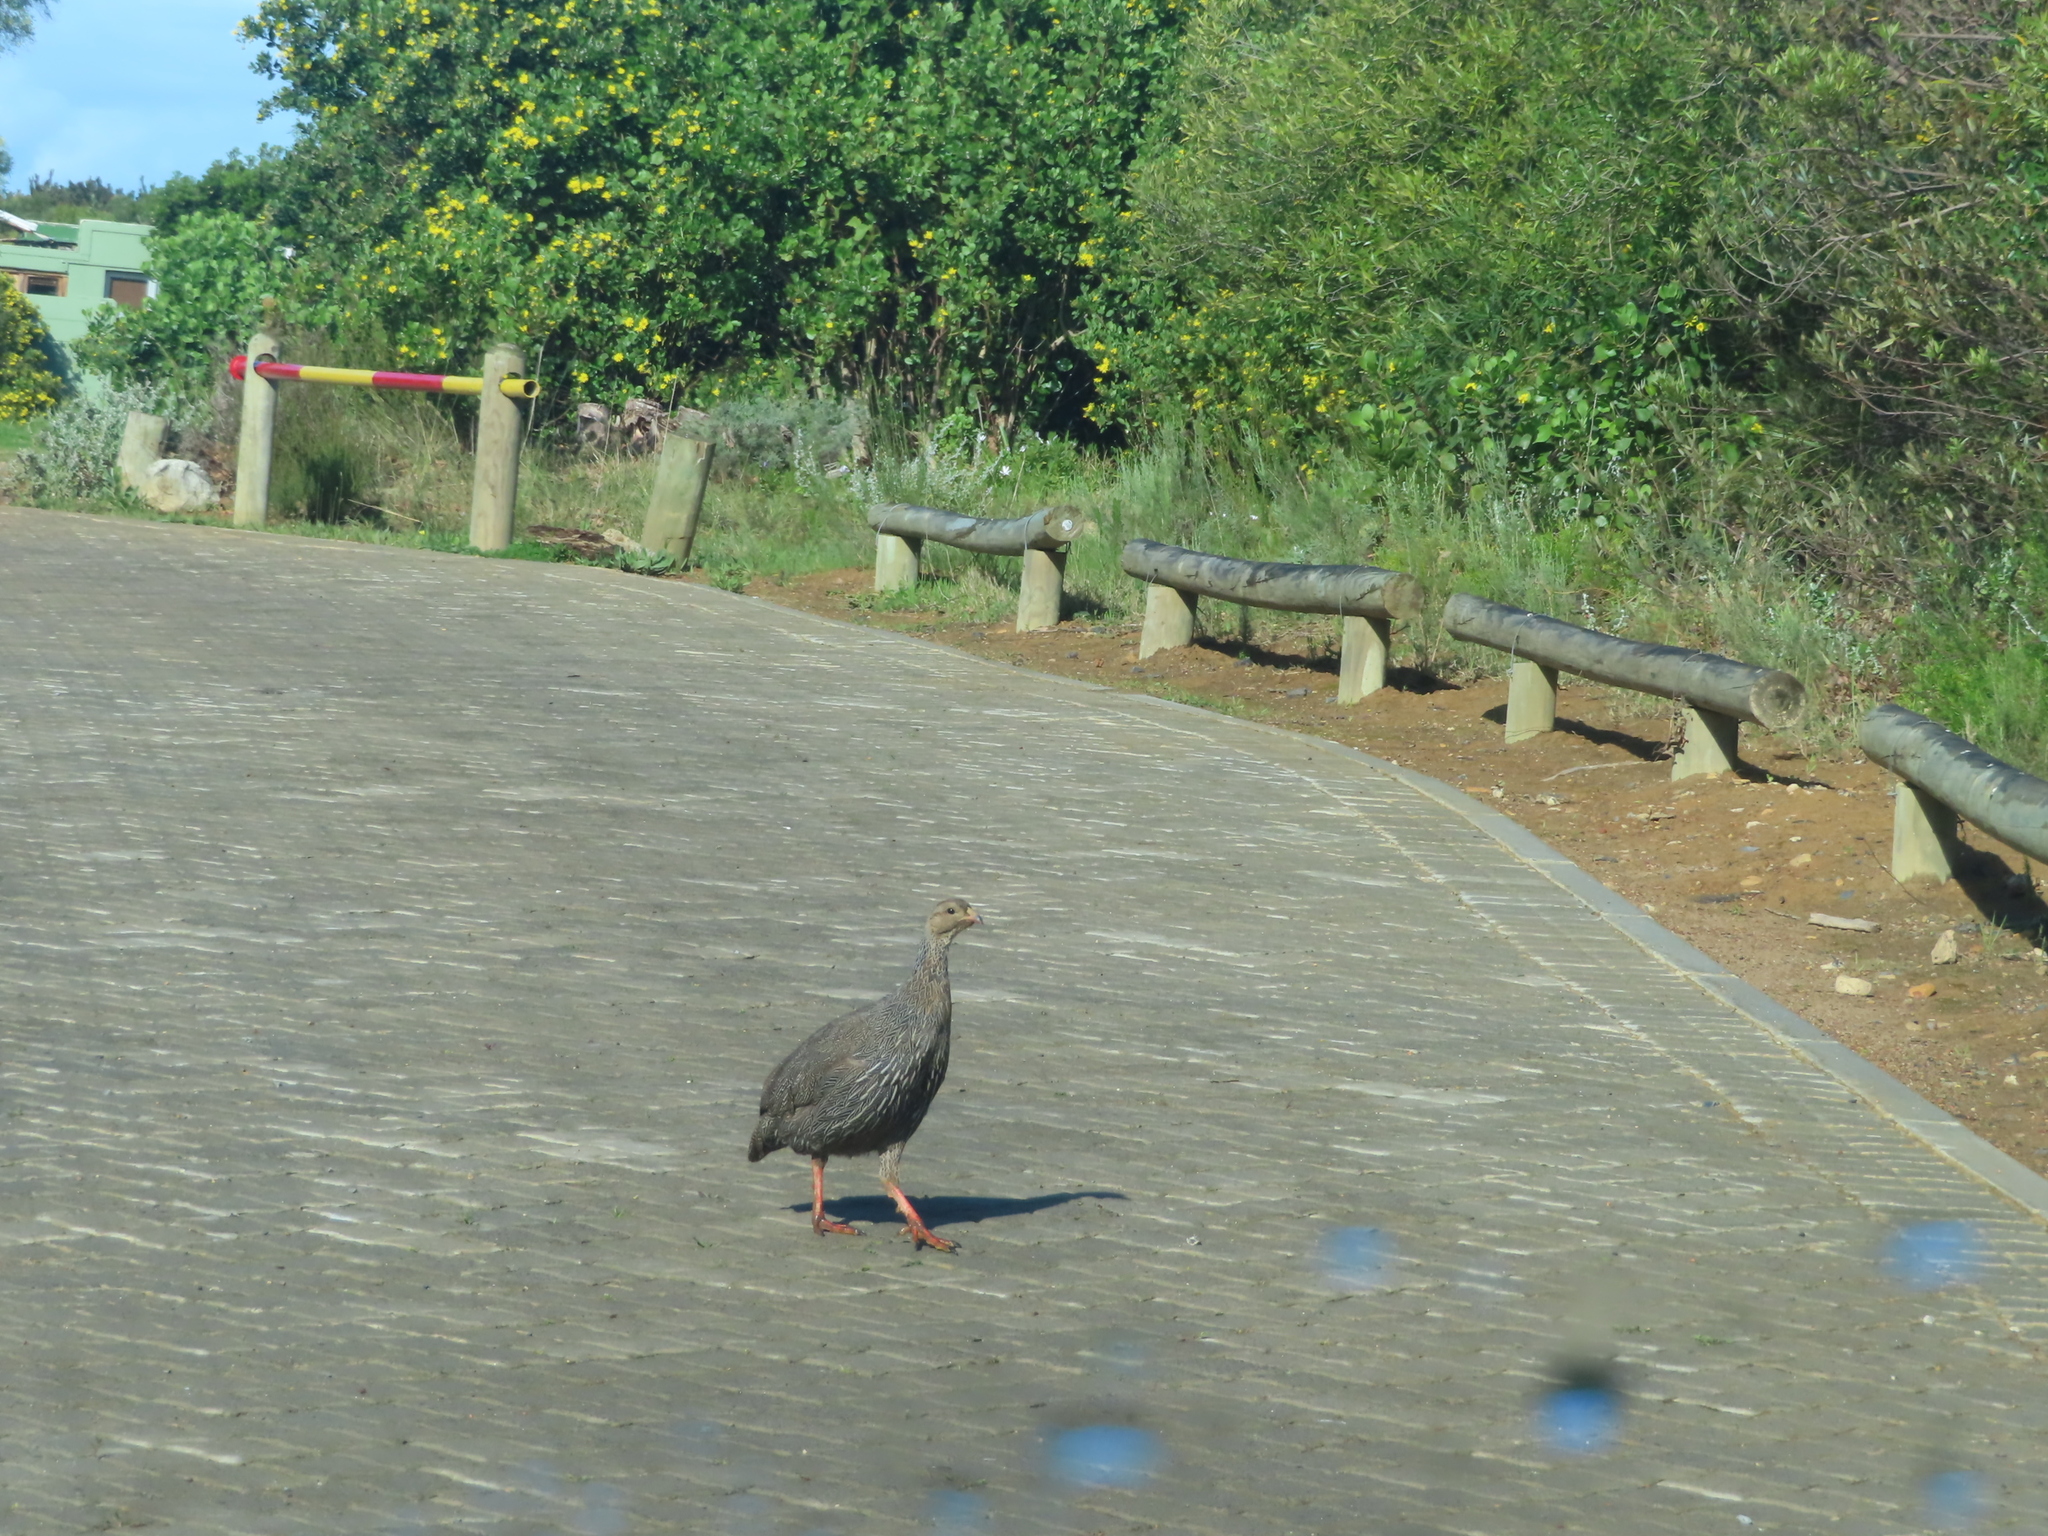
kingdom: Animalia
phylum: Chordata
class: Aves
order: Galliformes
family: Phasianidae
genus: Pternistis
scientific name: Pternistis capensis
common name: Cape spurfowl
